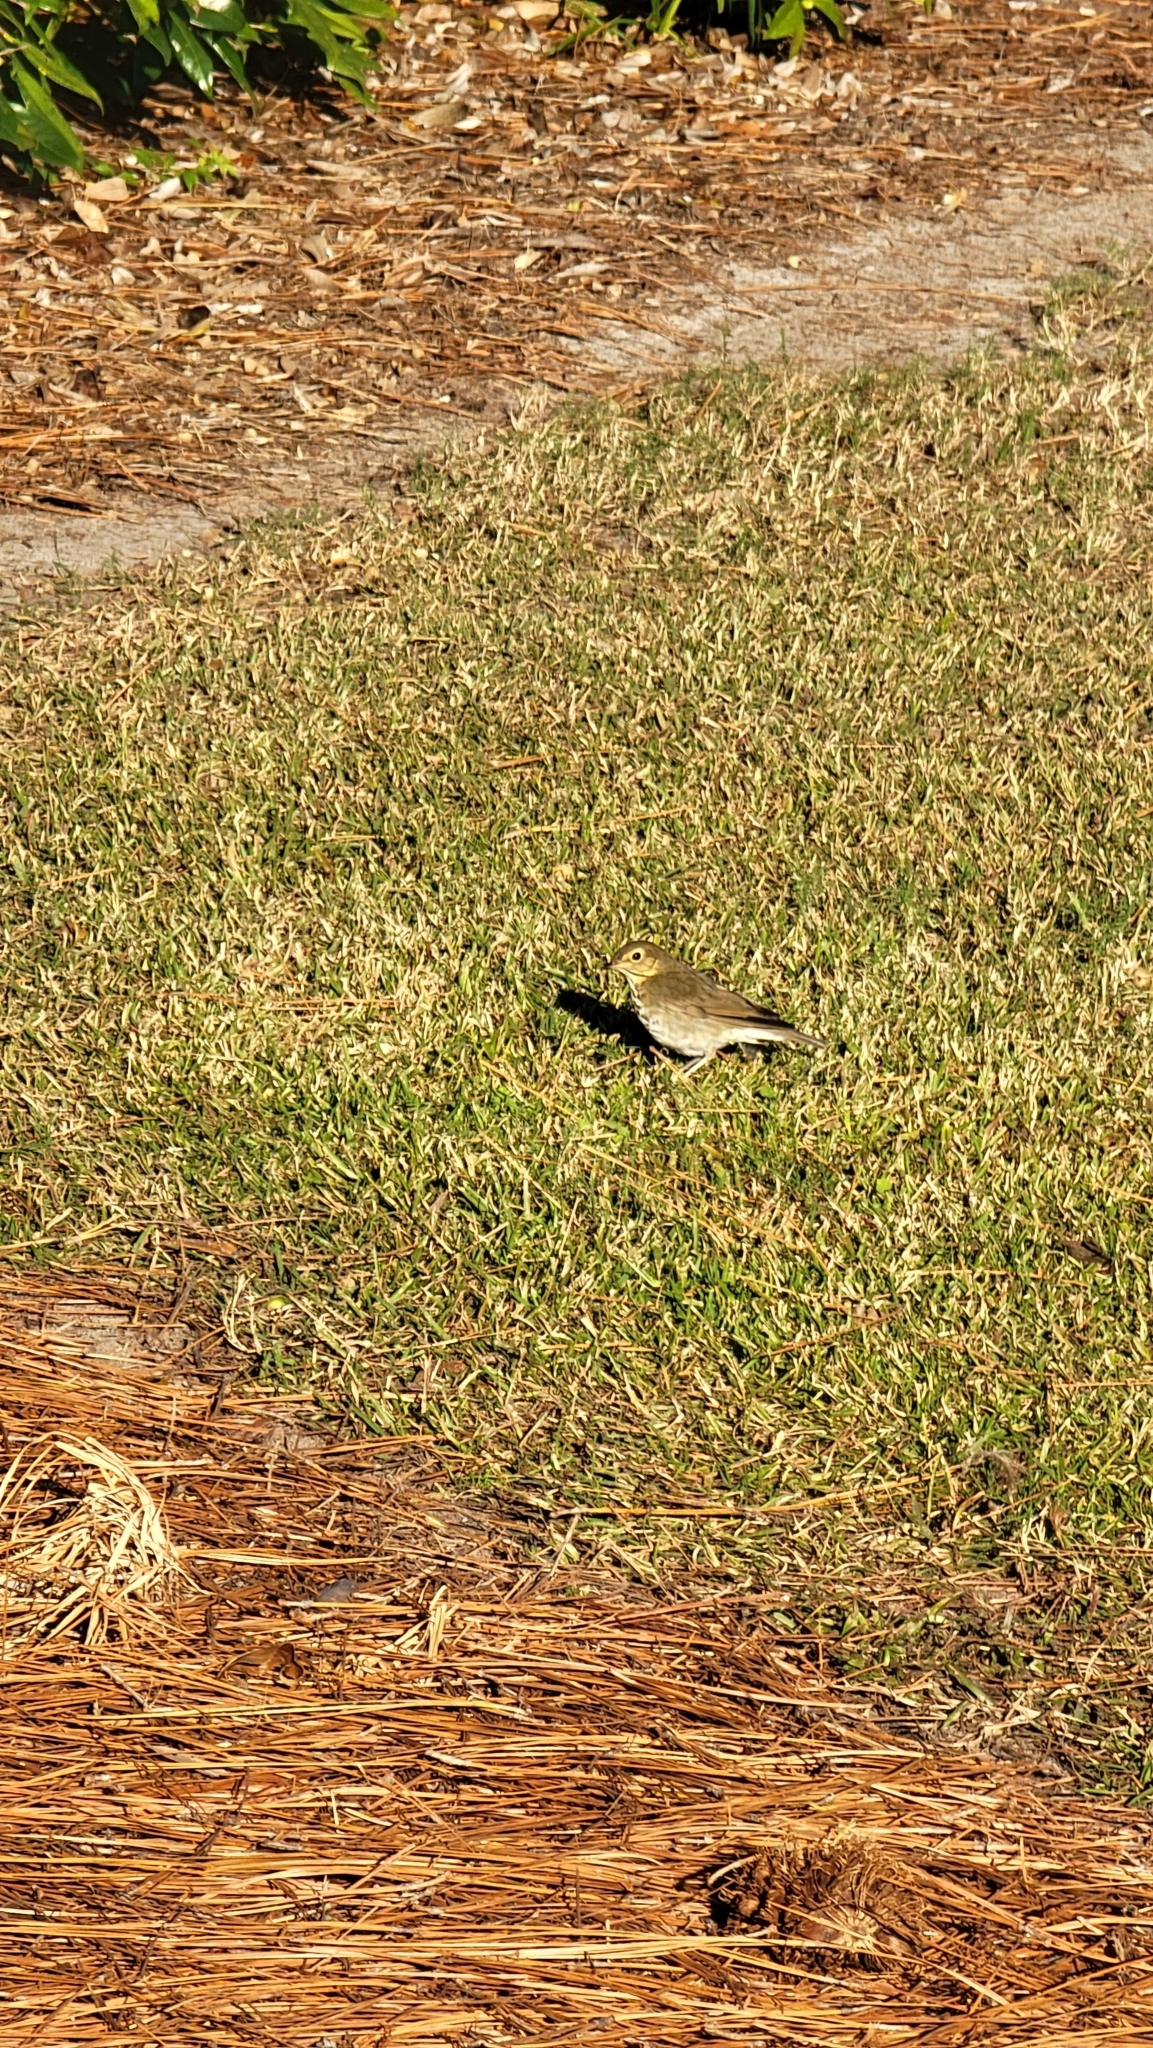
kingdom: Animalia
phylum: Chordata
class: Aves
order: Passeriformes
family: Turdidae
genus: Catharus
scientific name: Catharus guttatus
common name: Hermit thrush
